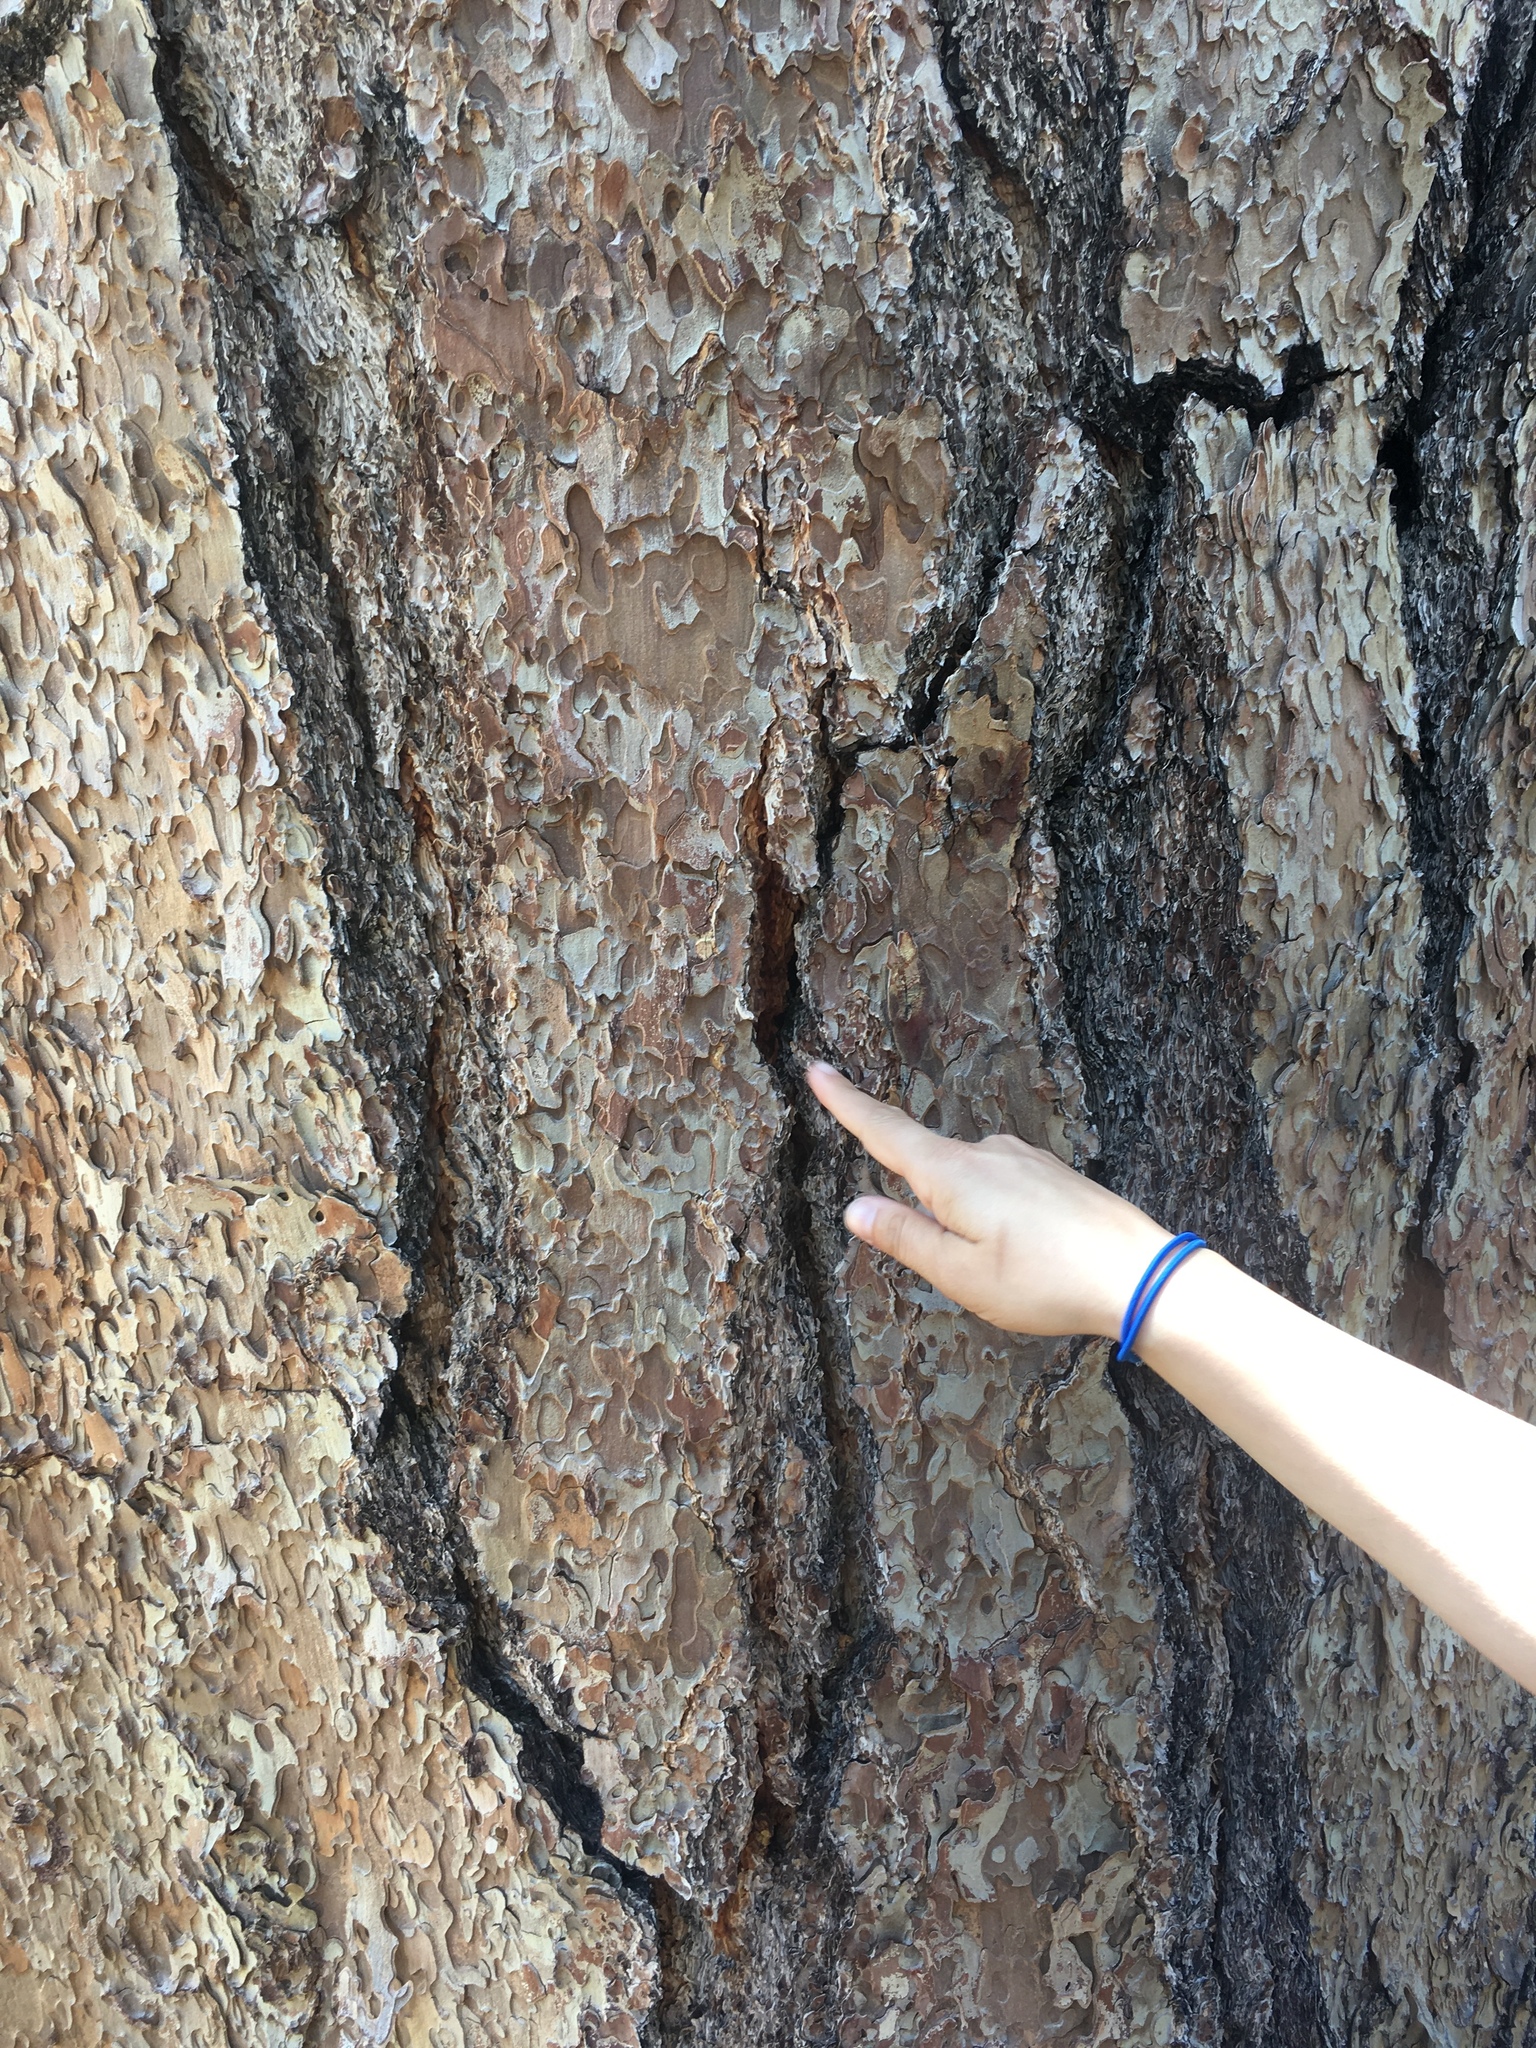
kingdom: Plantae
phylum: Tracheophyta
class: Pinopsida
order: Pinales
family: Pinaceae
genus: Pinus
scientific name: Pinus jeffreyi
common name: Jeffrey pine
